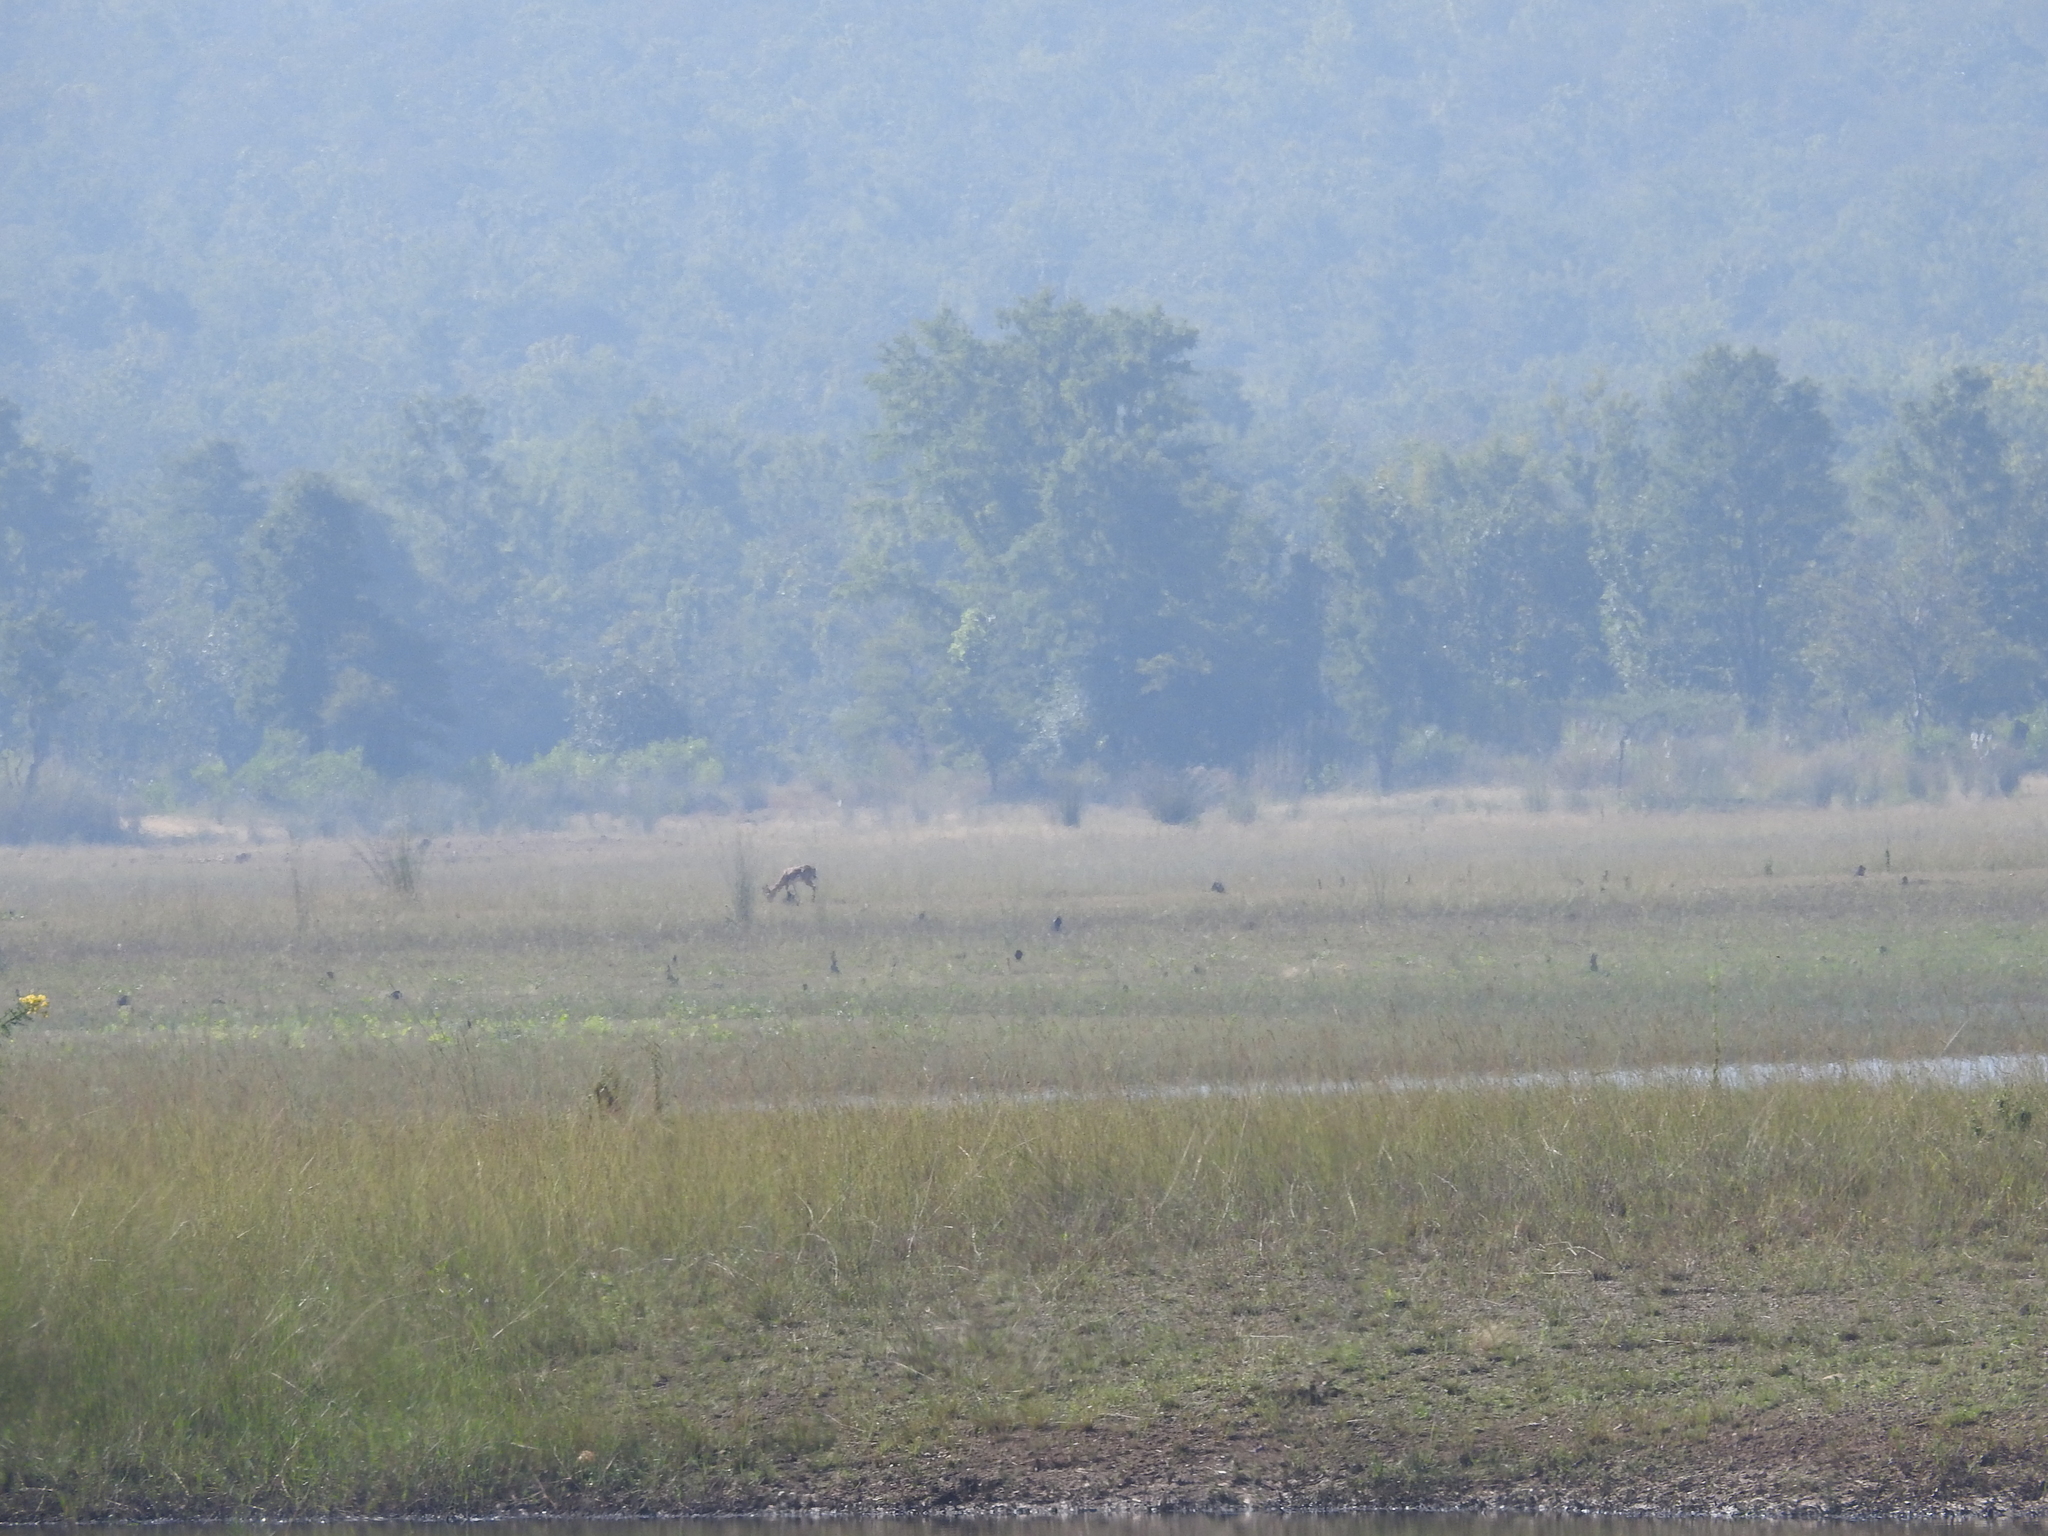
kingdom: Animalia
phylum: Chordata
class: Mammalia
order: Artiodactyla
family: Bovidae
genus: Gazella
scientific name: Gazella bennettii
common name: Indian gazelle
